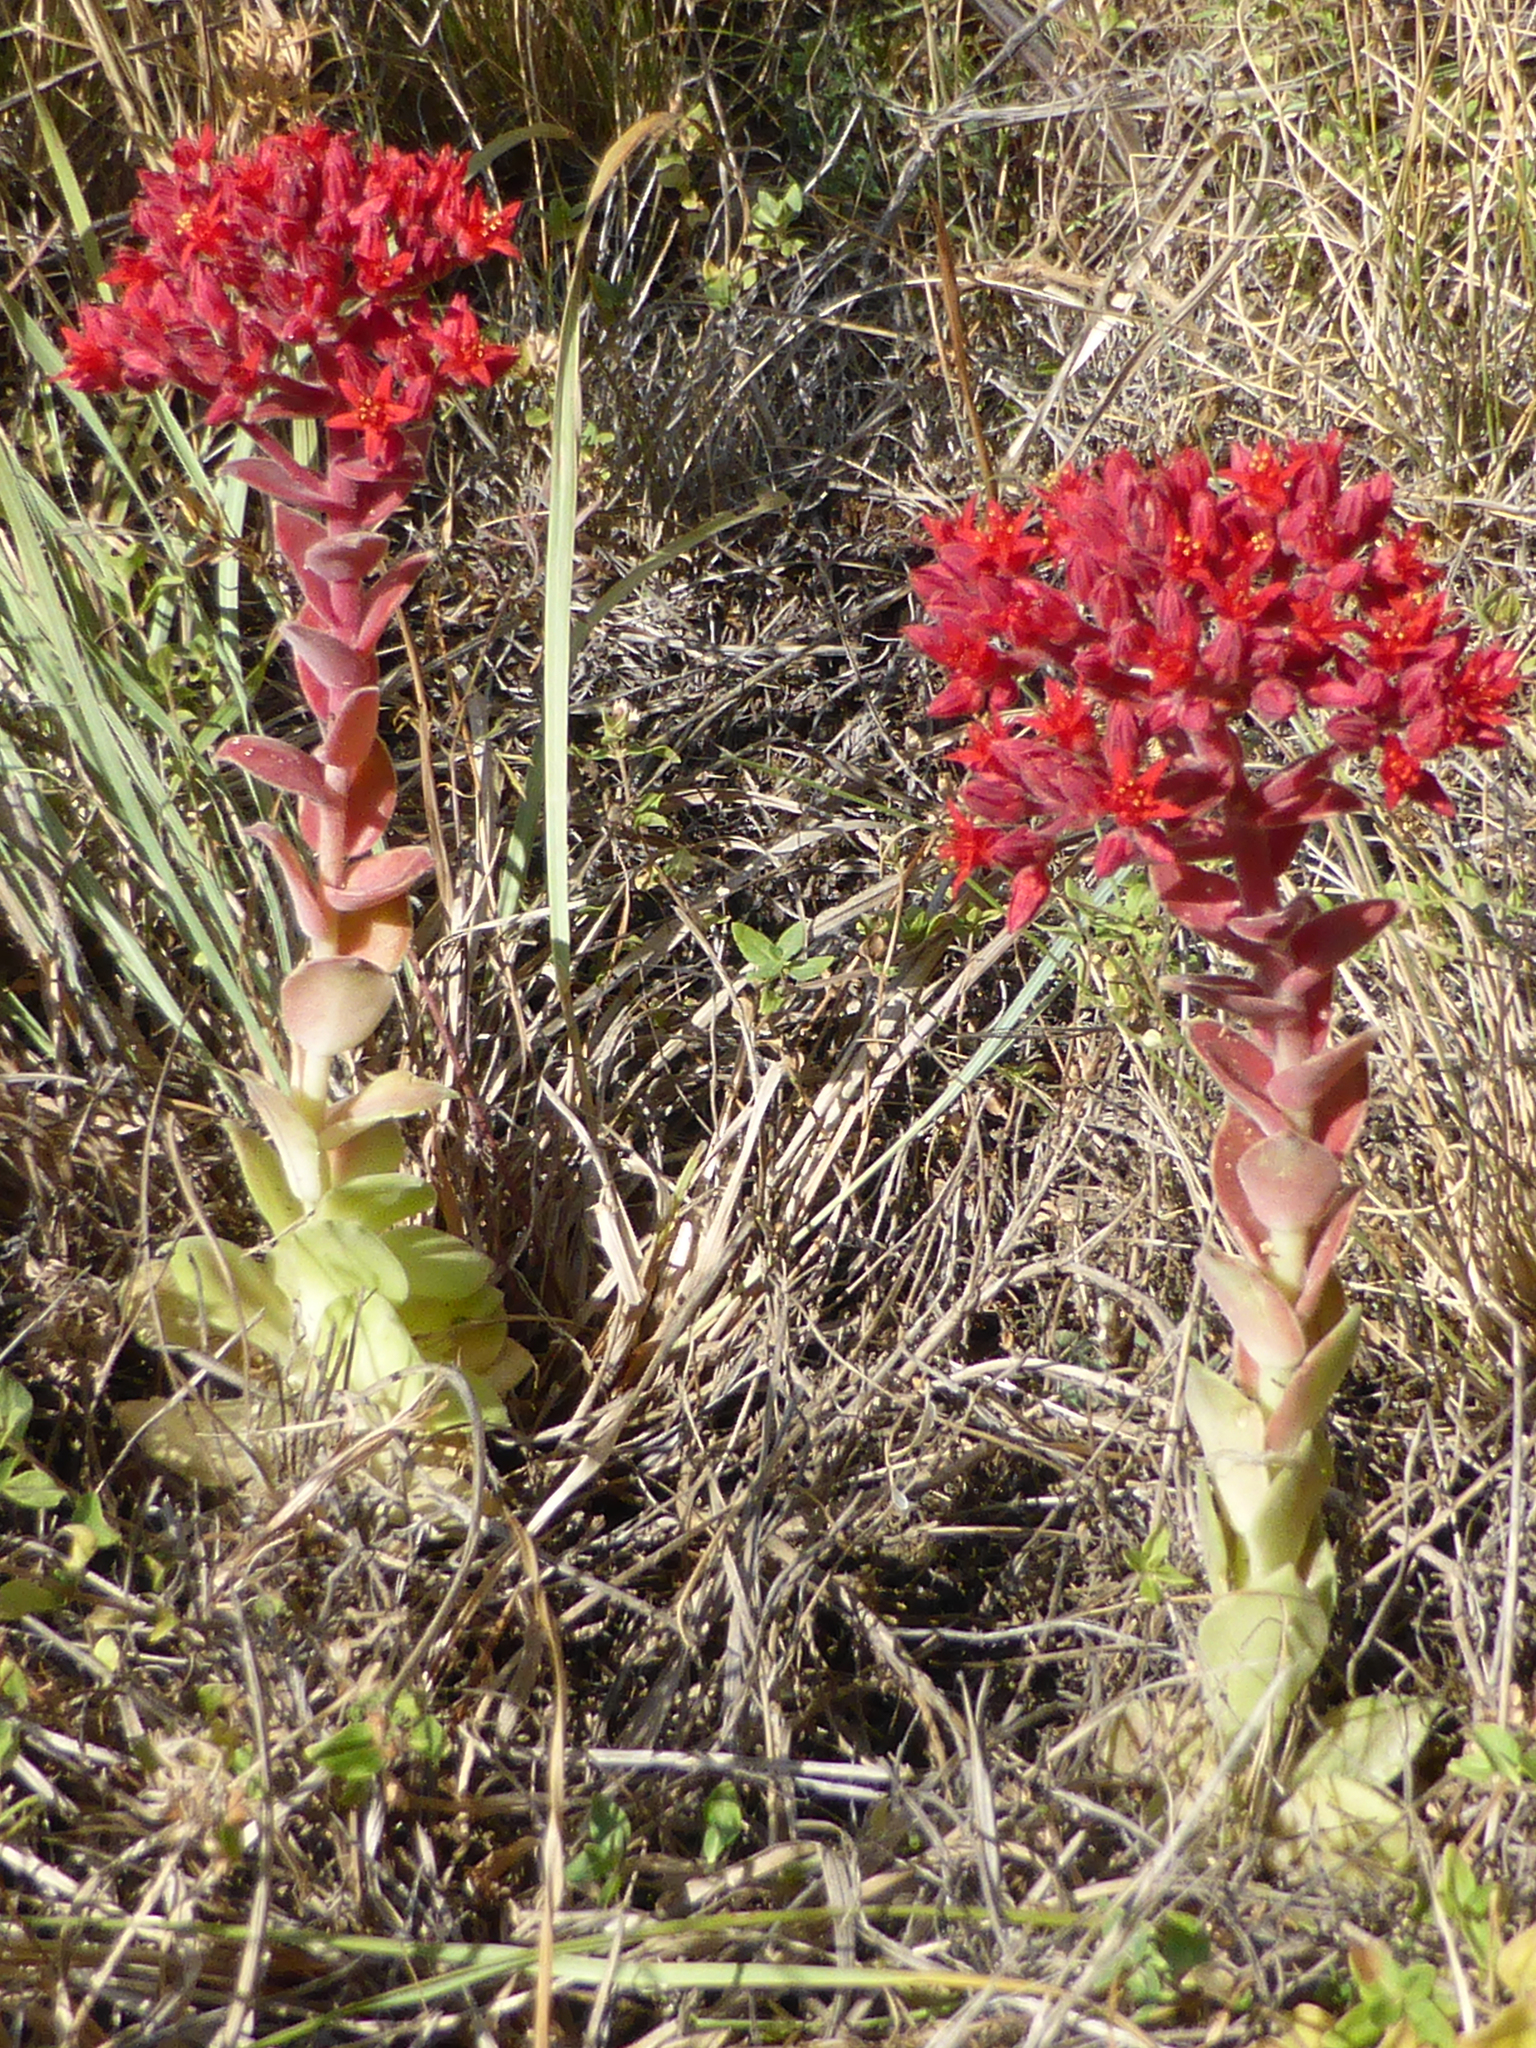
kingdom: Plantae
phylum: Tracheophyta
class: Magnoliopsida
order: Saxifragales
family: Crassulaceae
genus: Prometheum
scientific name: Prometheum sempervivoides
